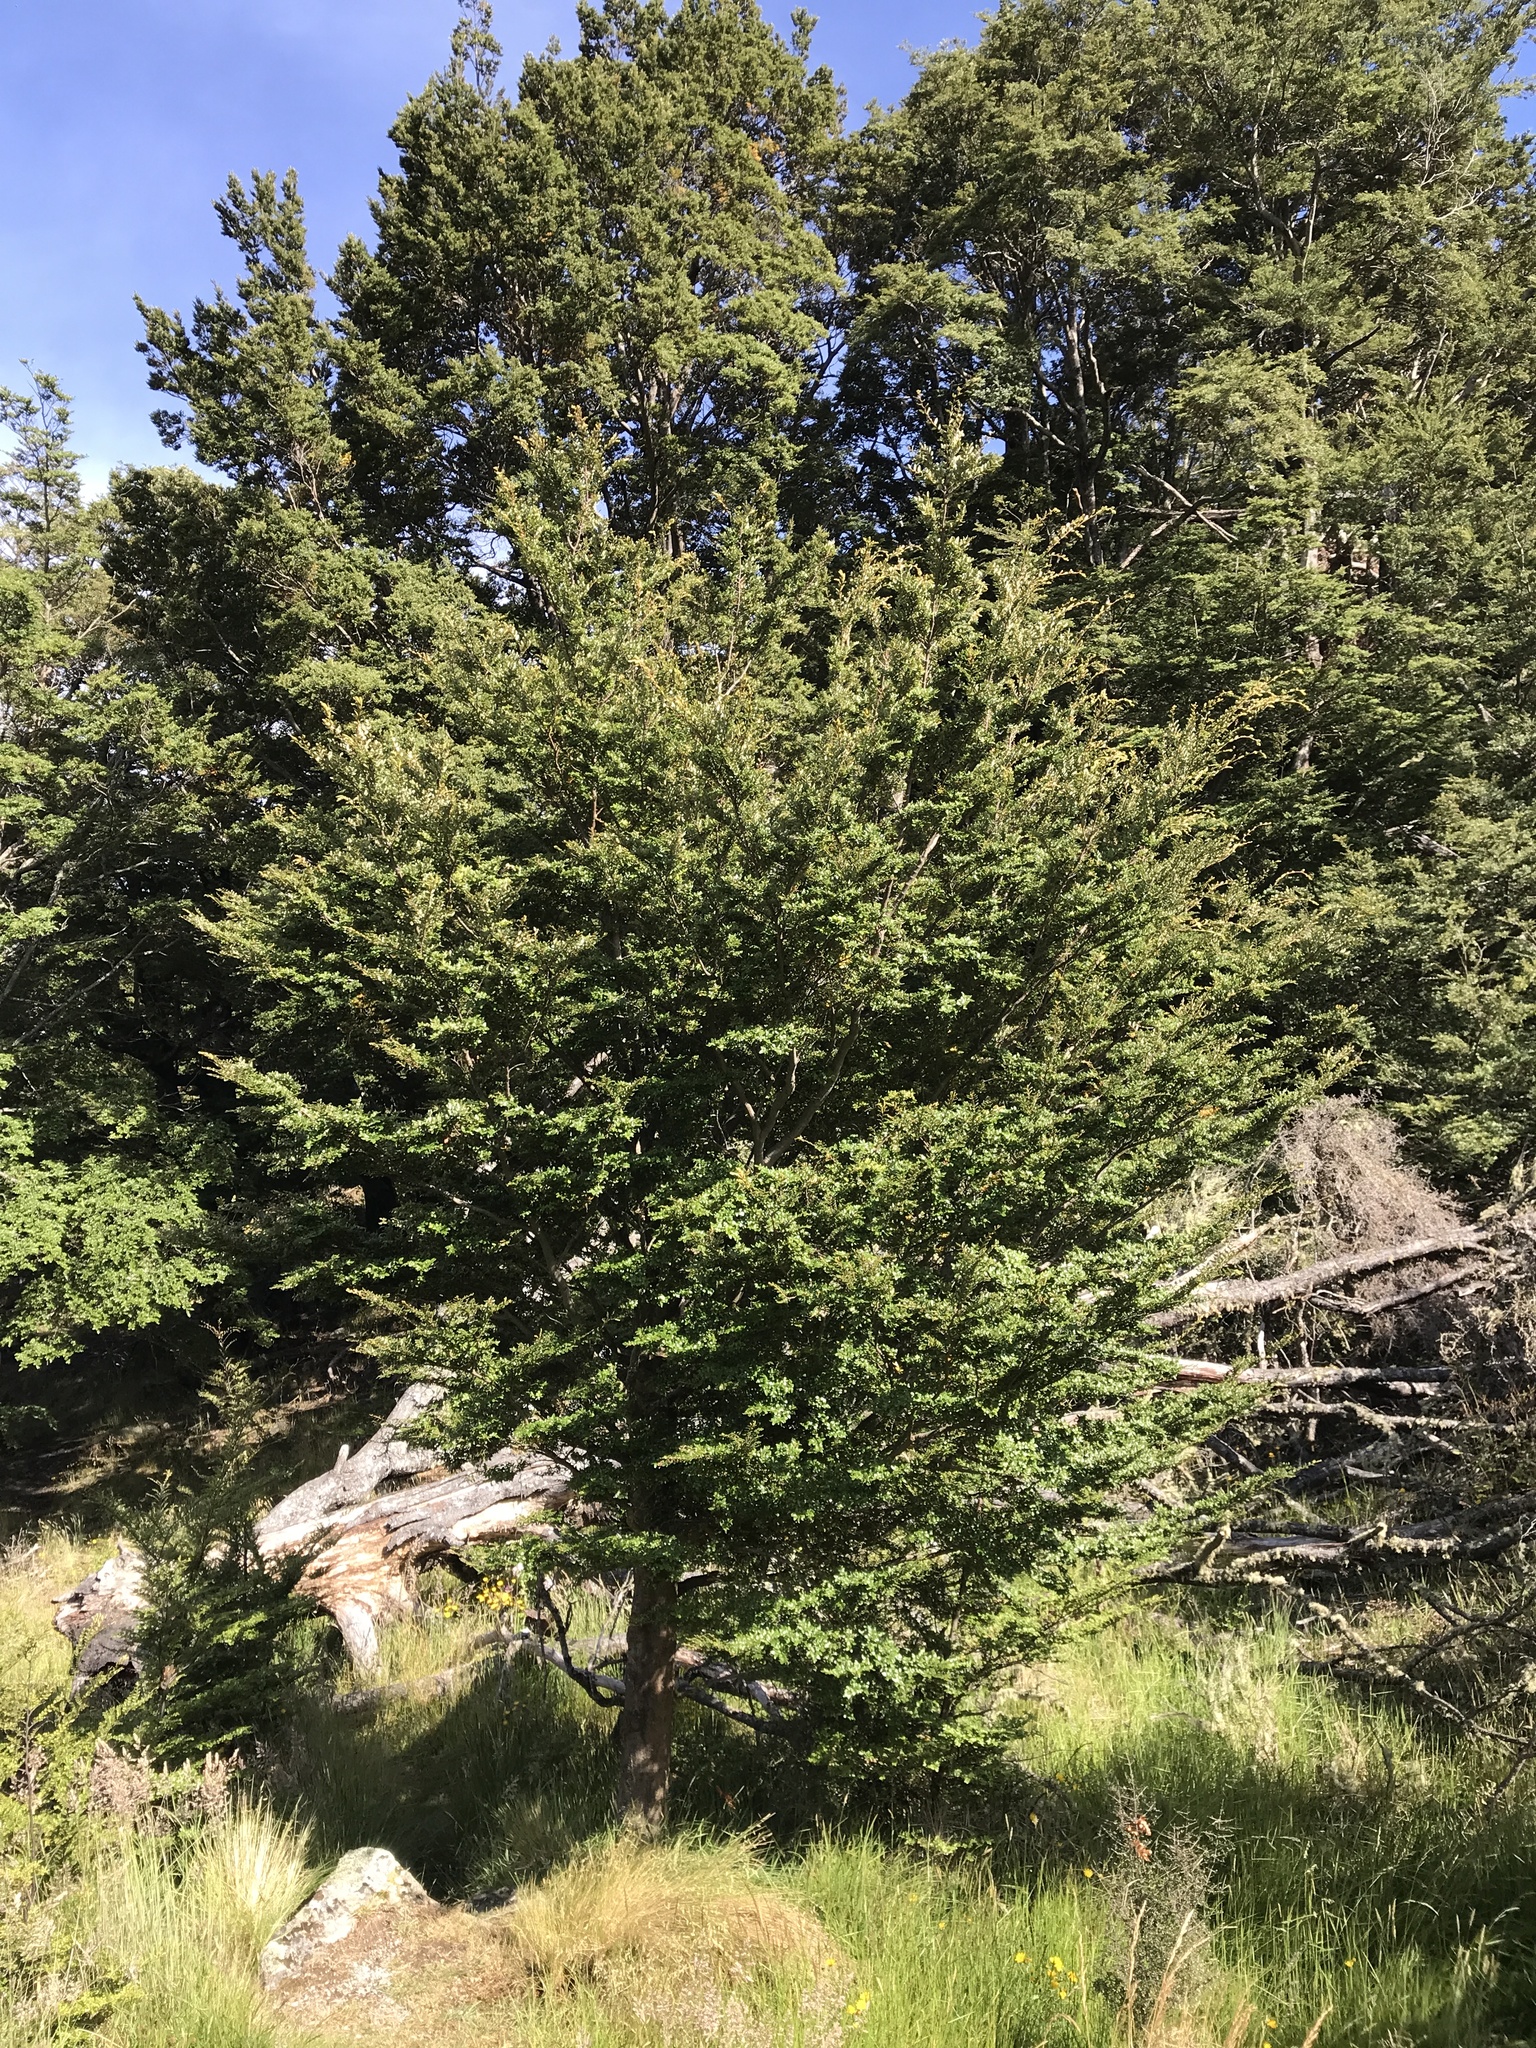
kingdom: Plantae
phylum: Tracheophyta
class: Magnoliopsida
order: Fagales
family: Nothofagaceae
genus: Nothofagus
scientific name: Nothofagus cliffortioides
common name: Mountain beech
